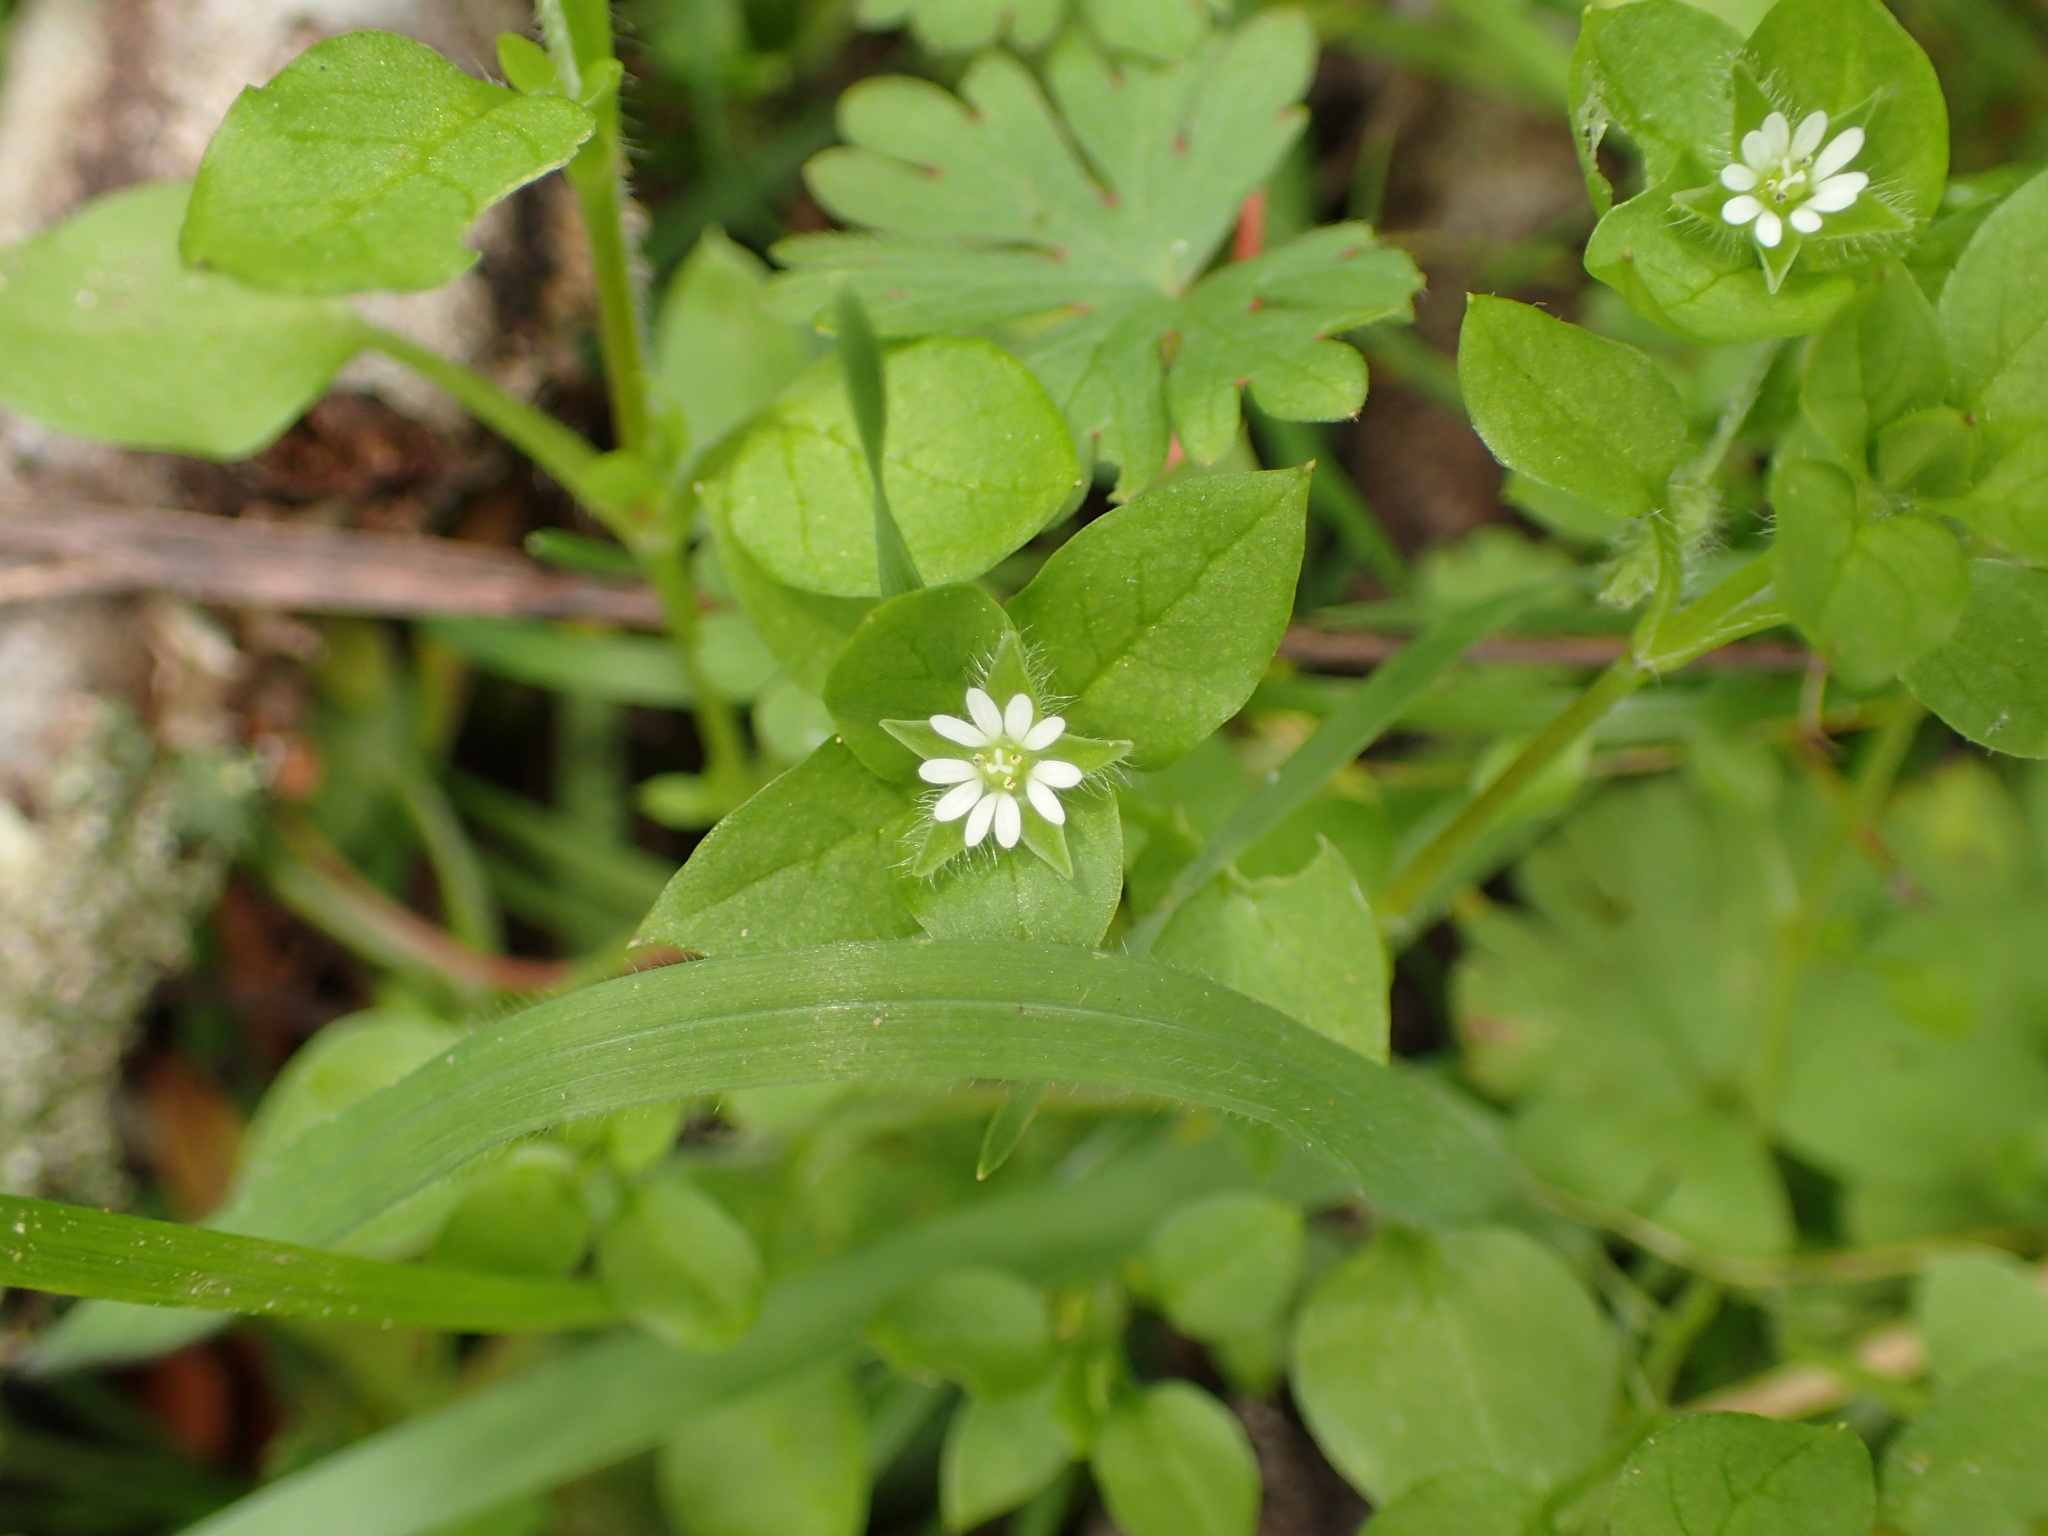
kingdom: Plantae
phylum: Tracheophyta
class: Magnoliopsida
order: Caryophyllales
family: Caryophyllaceae
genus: Stellaria
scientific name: Stellaria media
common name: Common chickweed
